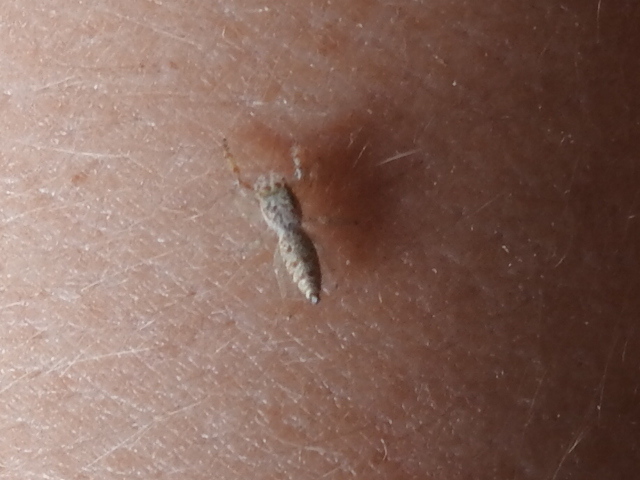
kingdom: Animalia
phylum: Arthropoda
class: Arachnida
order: Araneae
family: Salticidae
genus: Hentzia
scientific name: Hentzia palmarum
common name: Common hentz jumping spider
